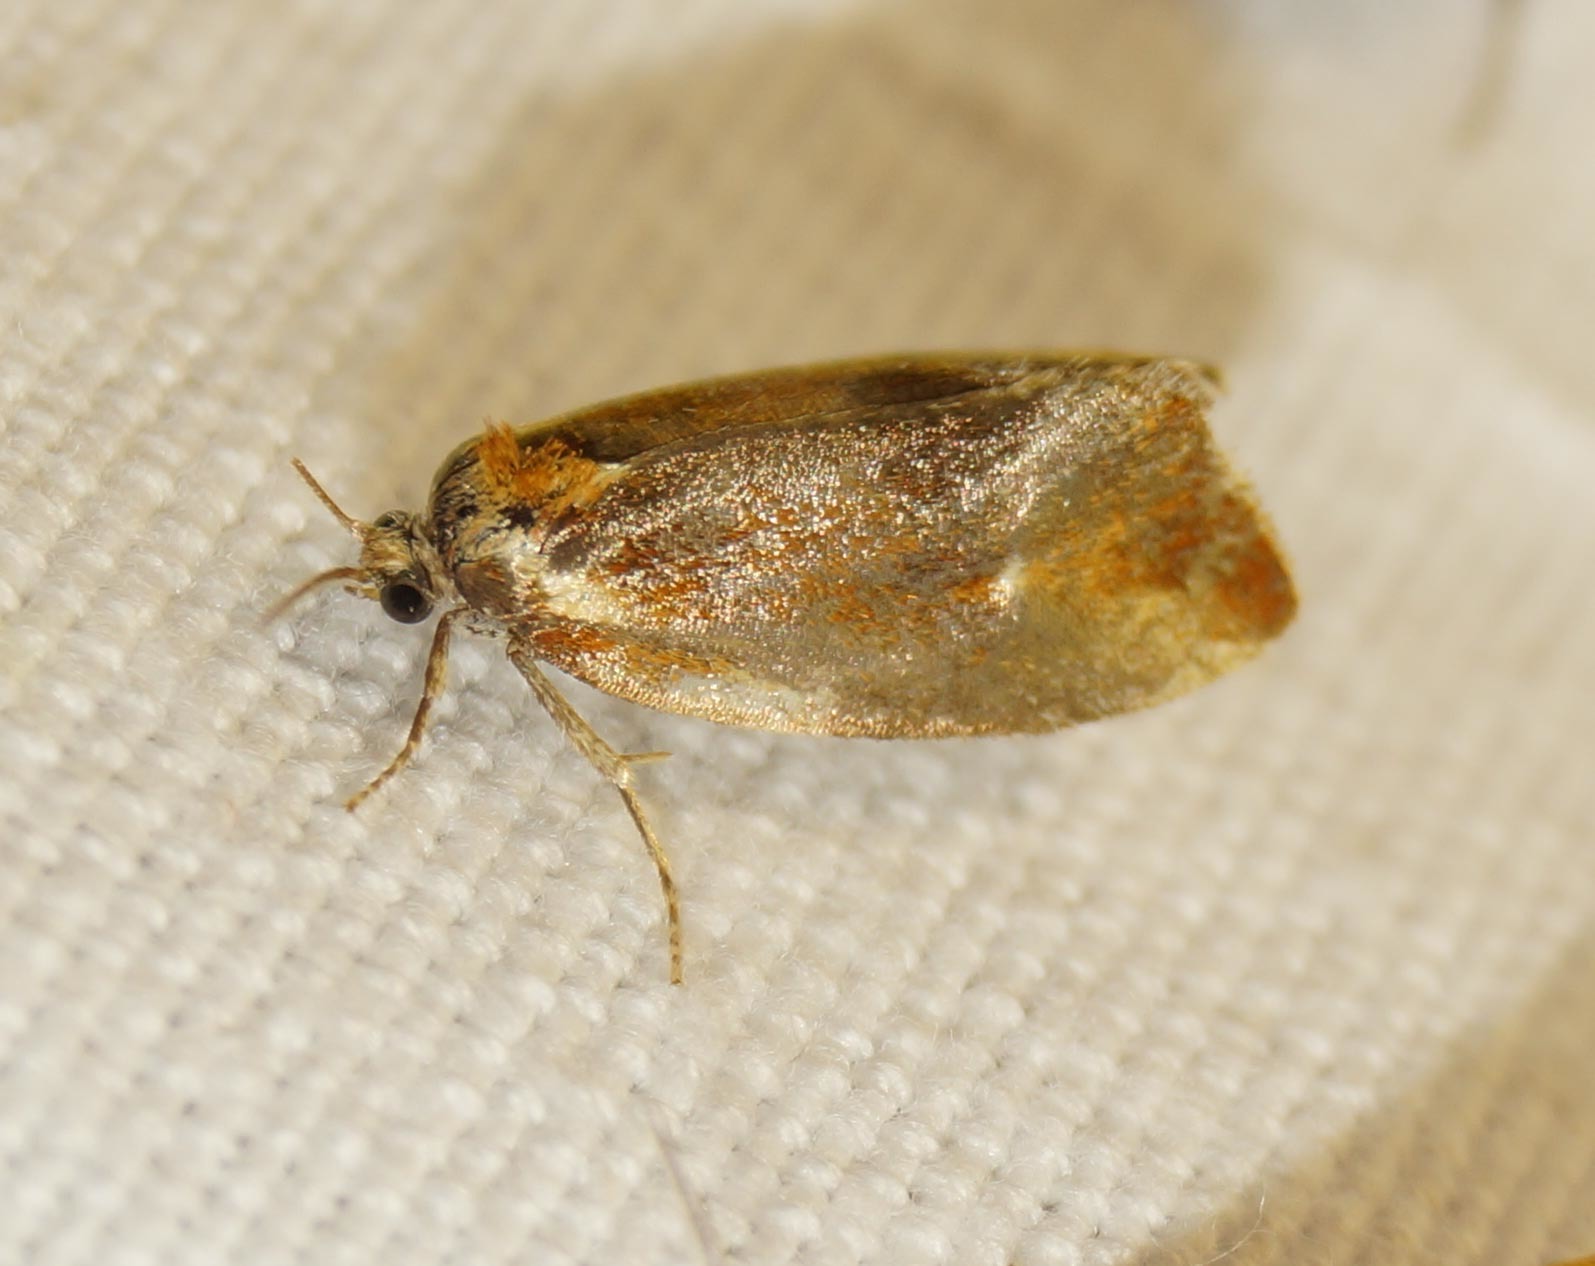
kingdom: Animalia
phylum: Arthropoda
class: Insecta
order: Lepidoptera
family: Tortricidae
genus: Eulia
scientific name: Eulia ministrana
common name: Brassy twist
